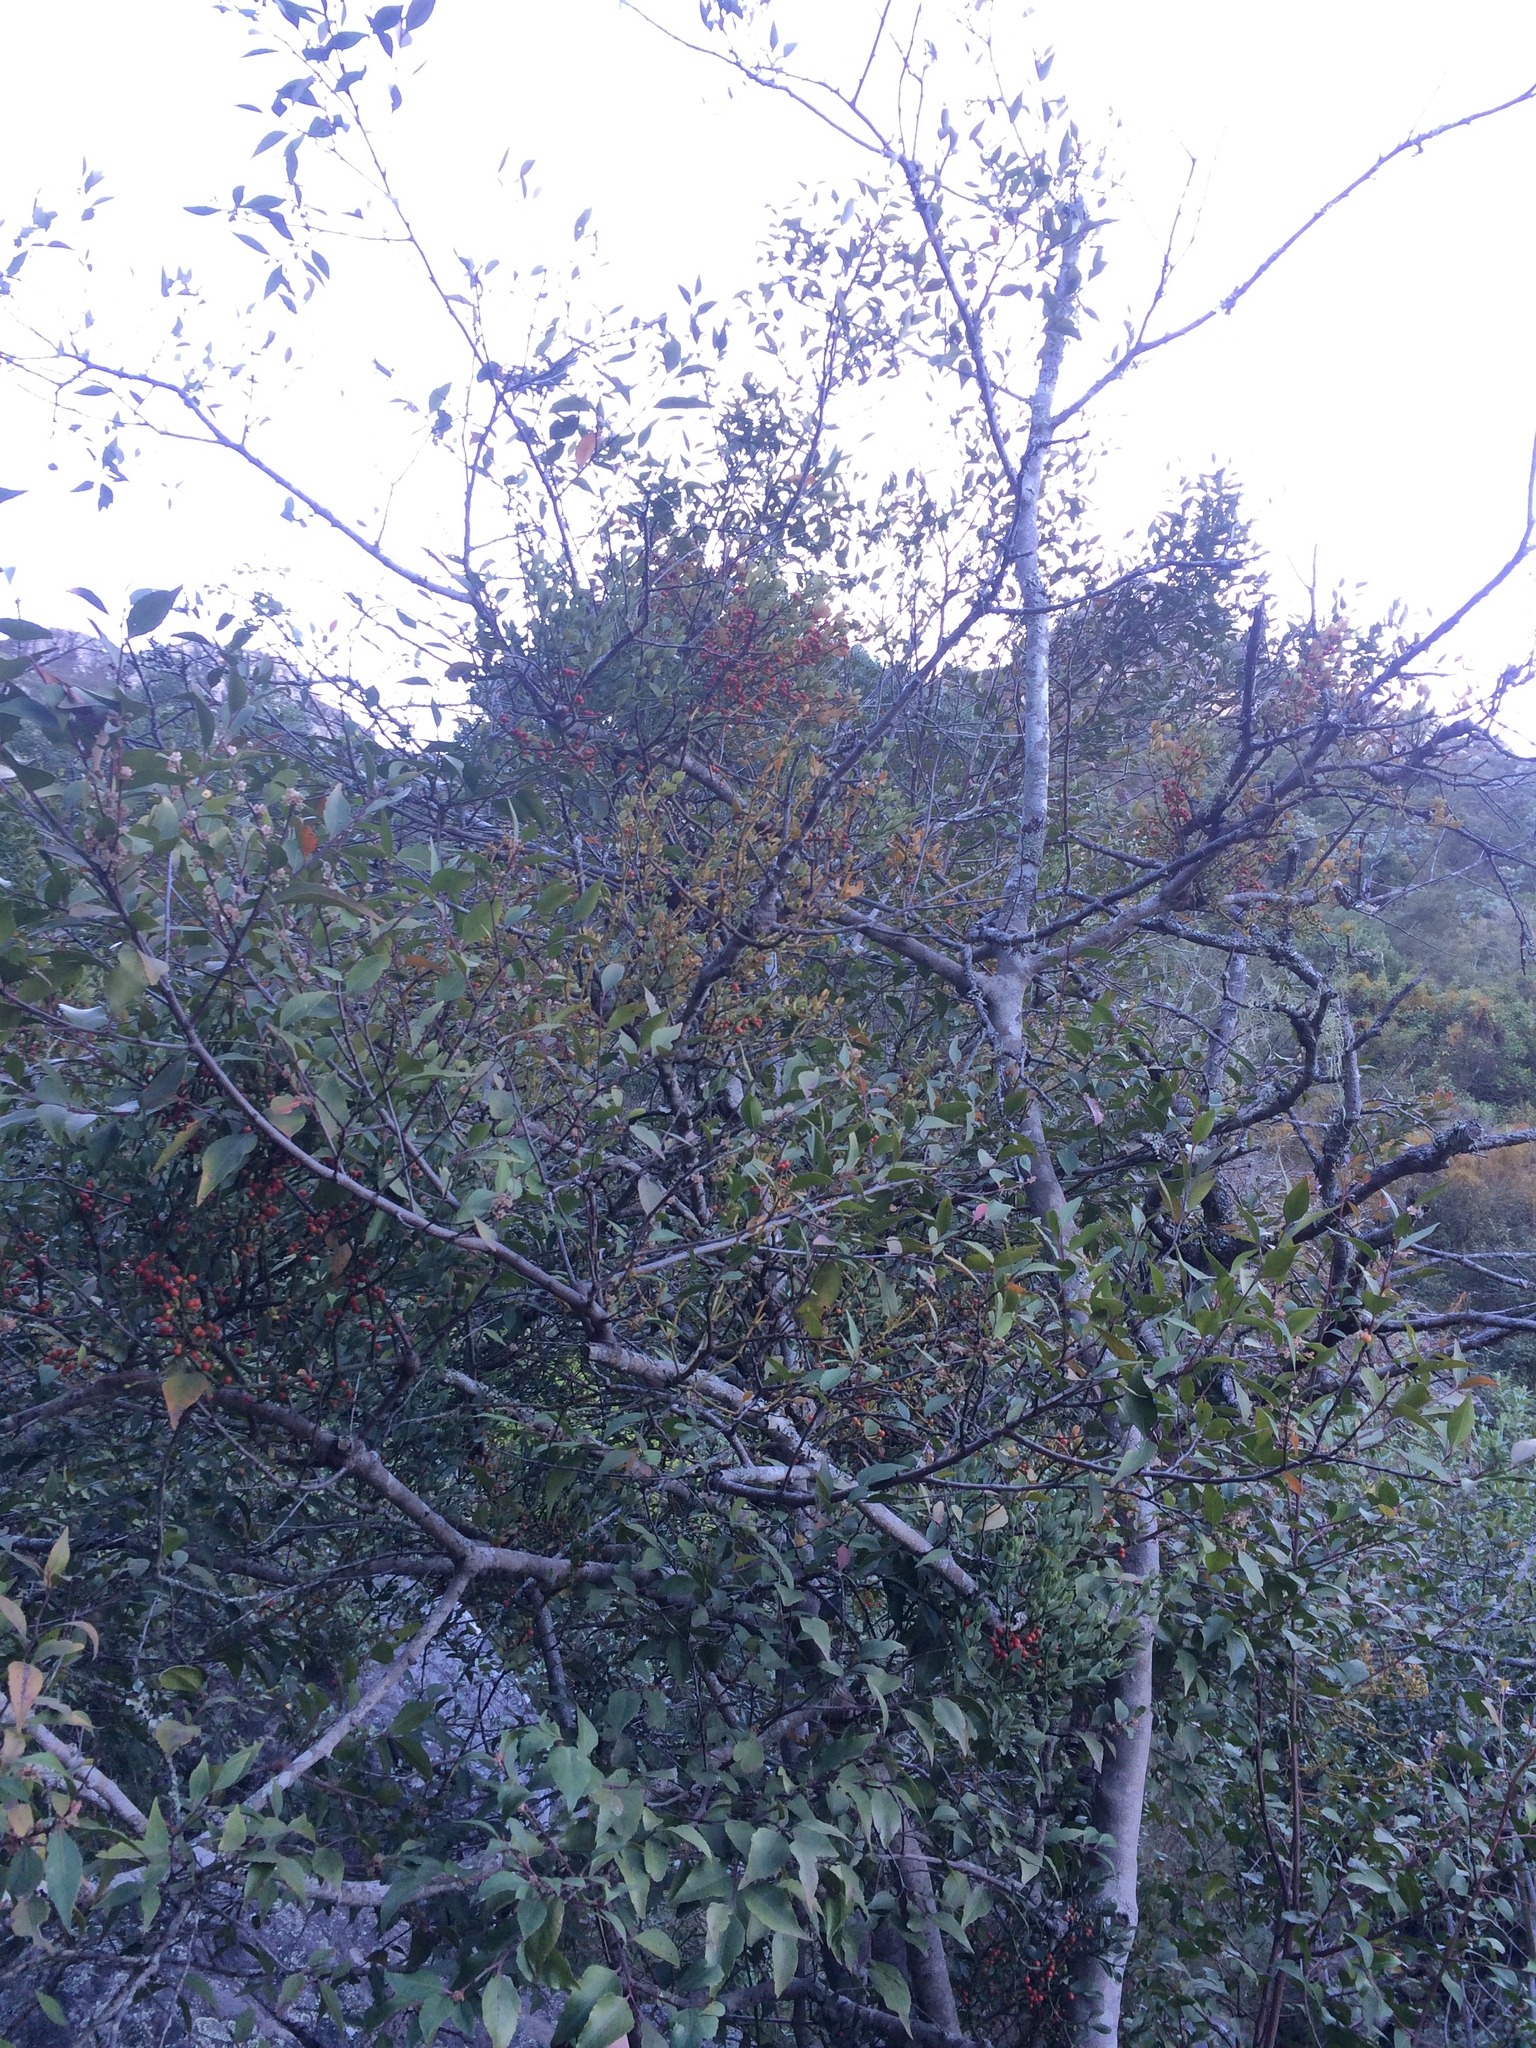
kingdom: Plantae
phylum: Tracheophyta
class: Magnoliopsida
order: Santalales
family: Viscaceae
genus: Viscum
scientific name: Viscum pauciflorum
